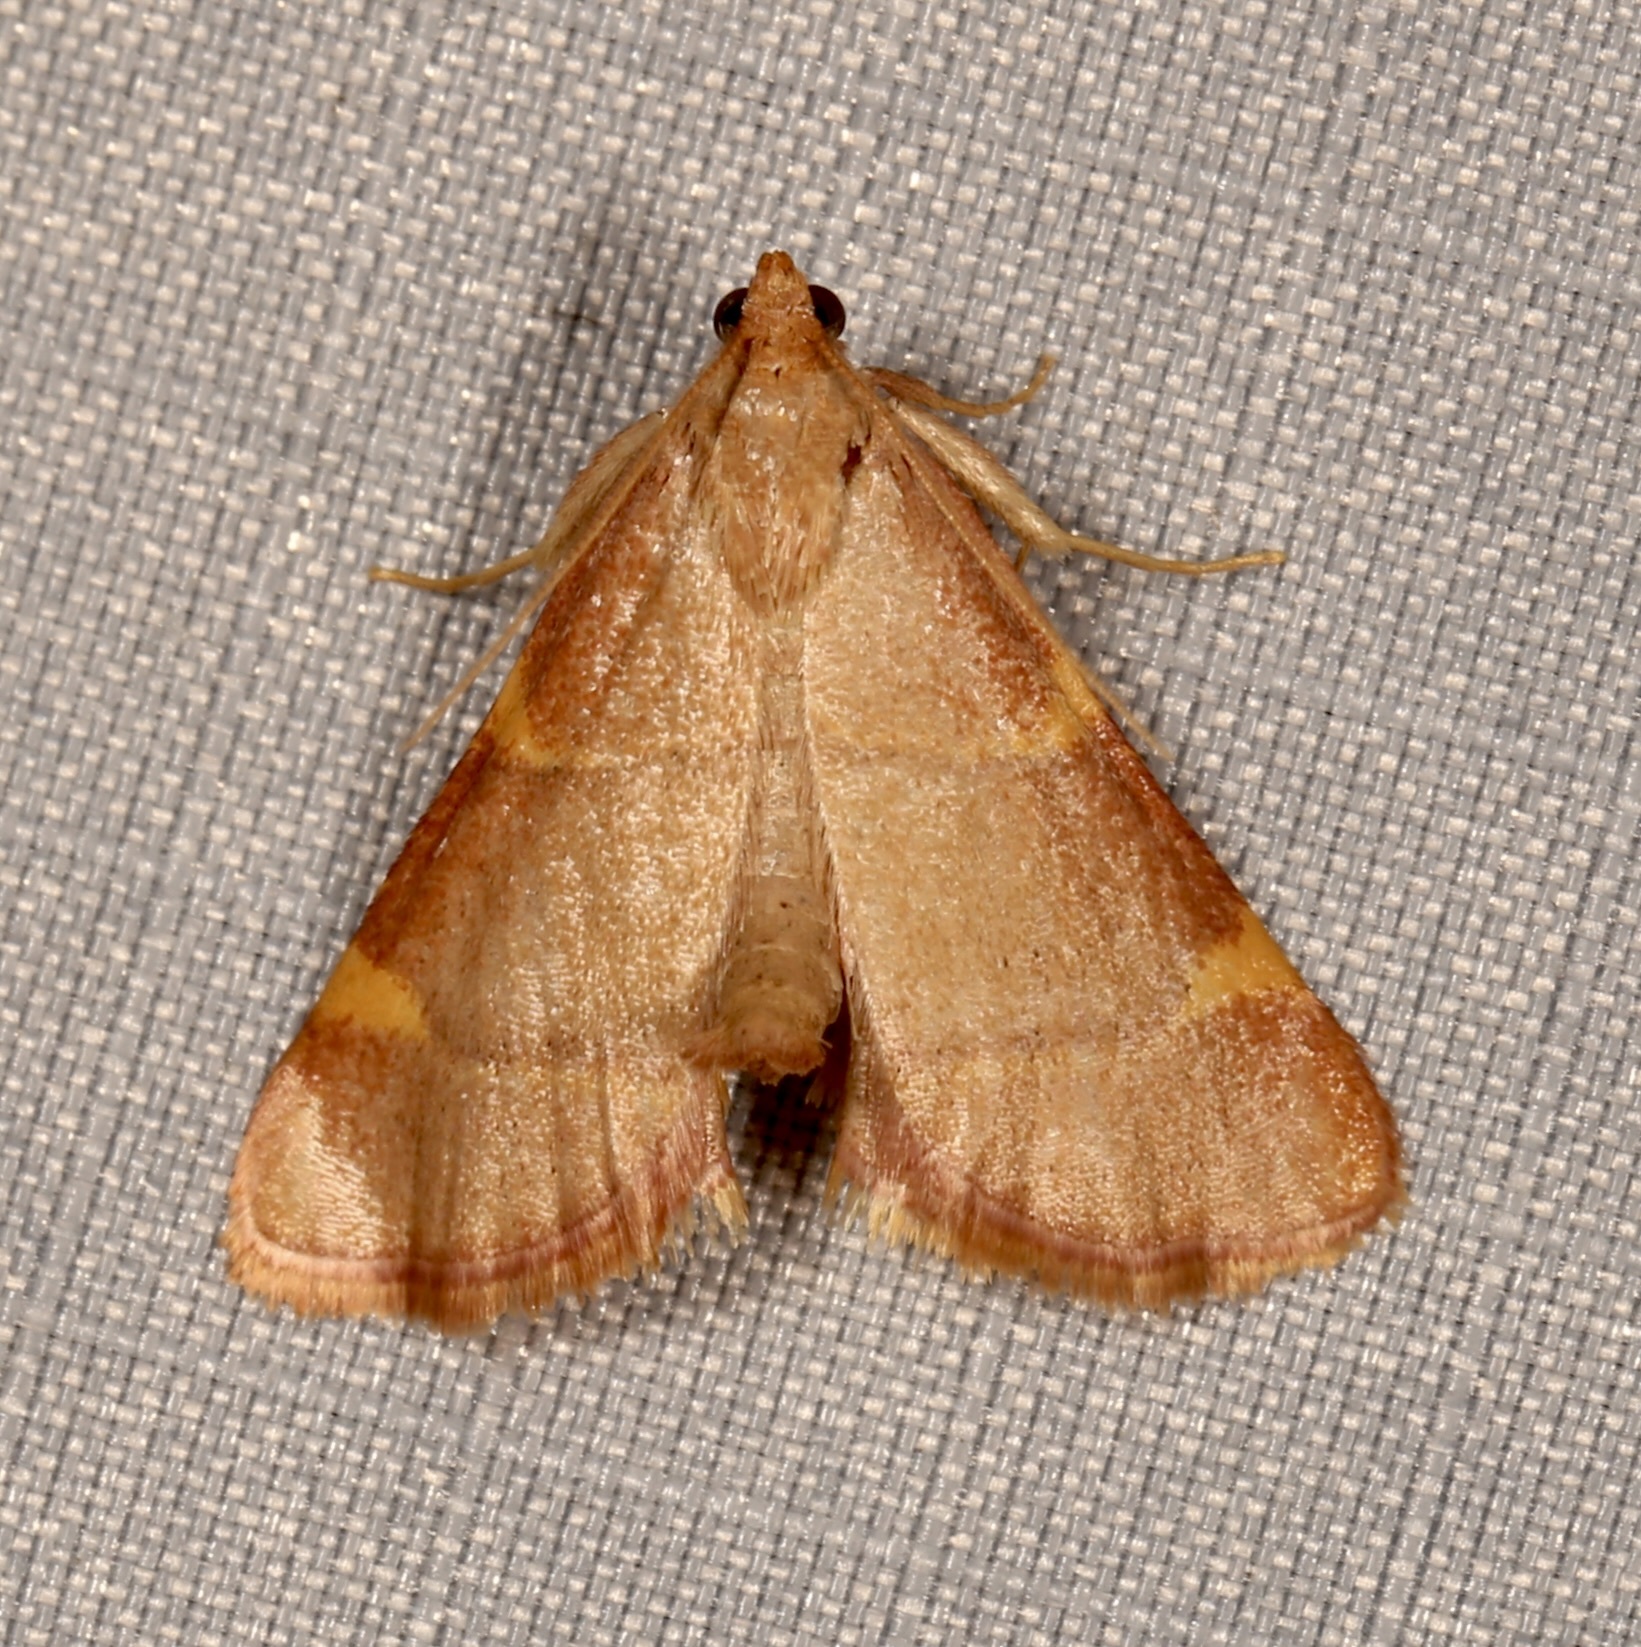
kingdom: Animalia
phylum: Arthropoda
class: Insecta
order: Lepidoptera
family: Pyralidae
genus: Hypsopygia
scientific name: Hypsopygia olinalis
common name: Yellow-fringed dolichomia moth
